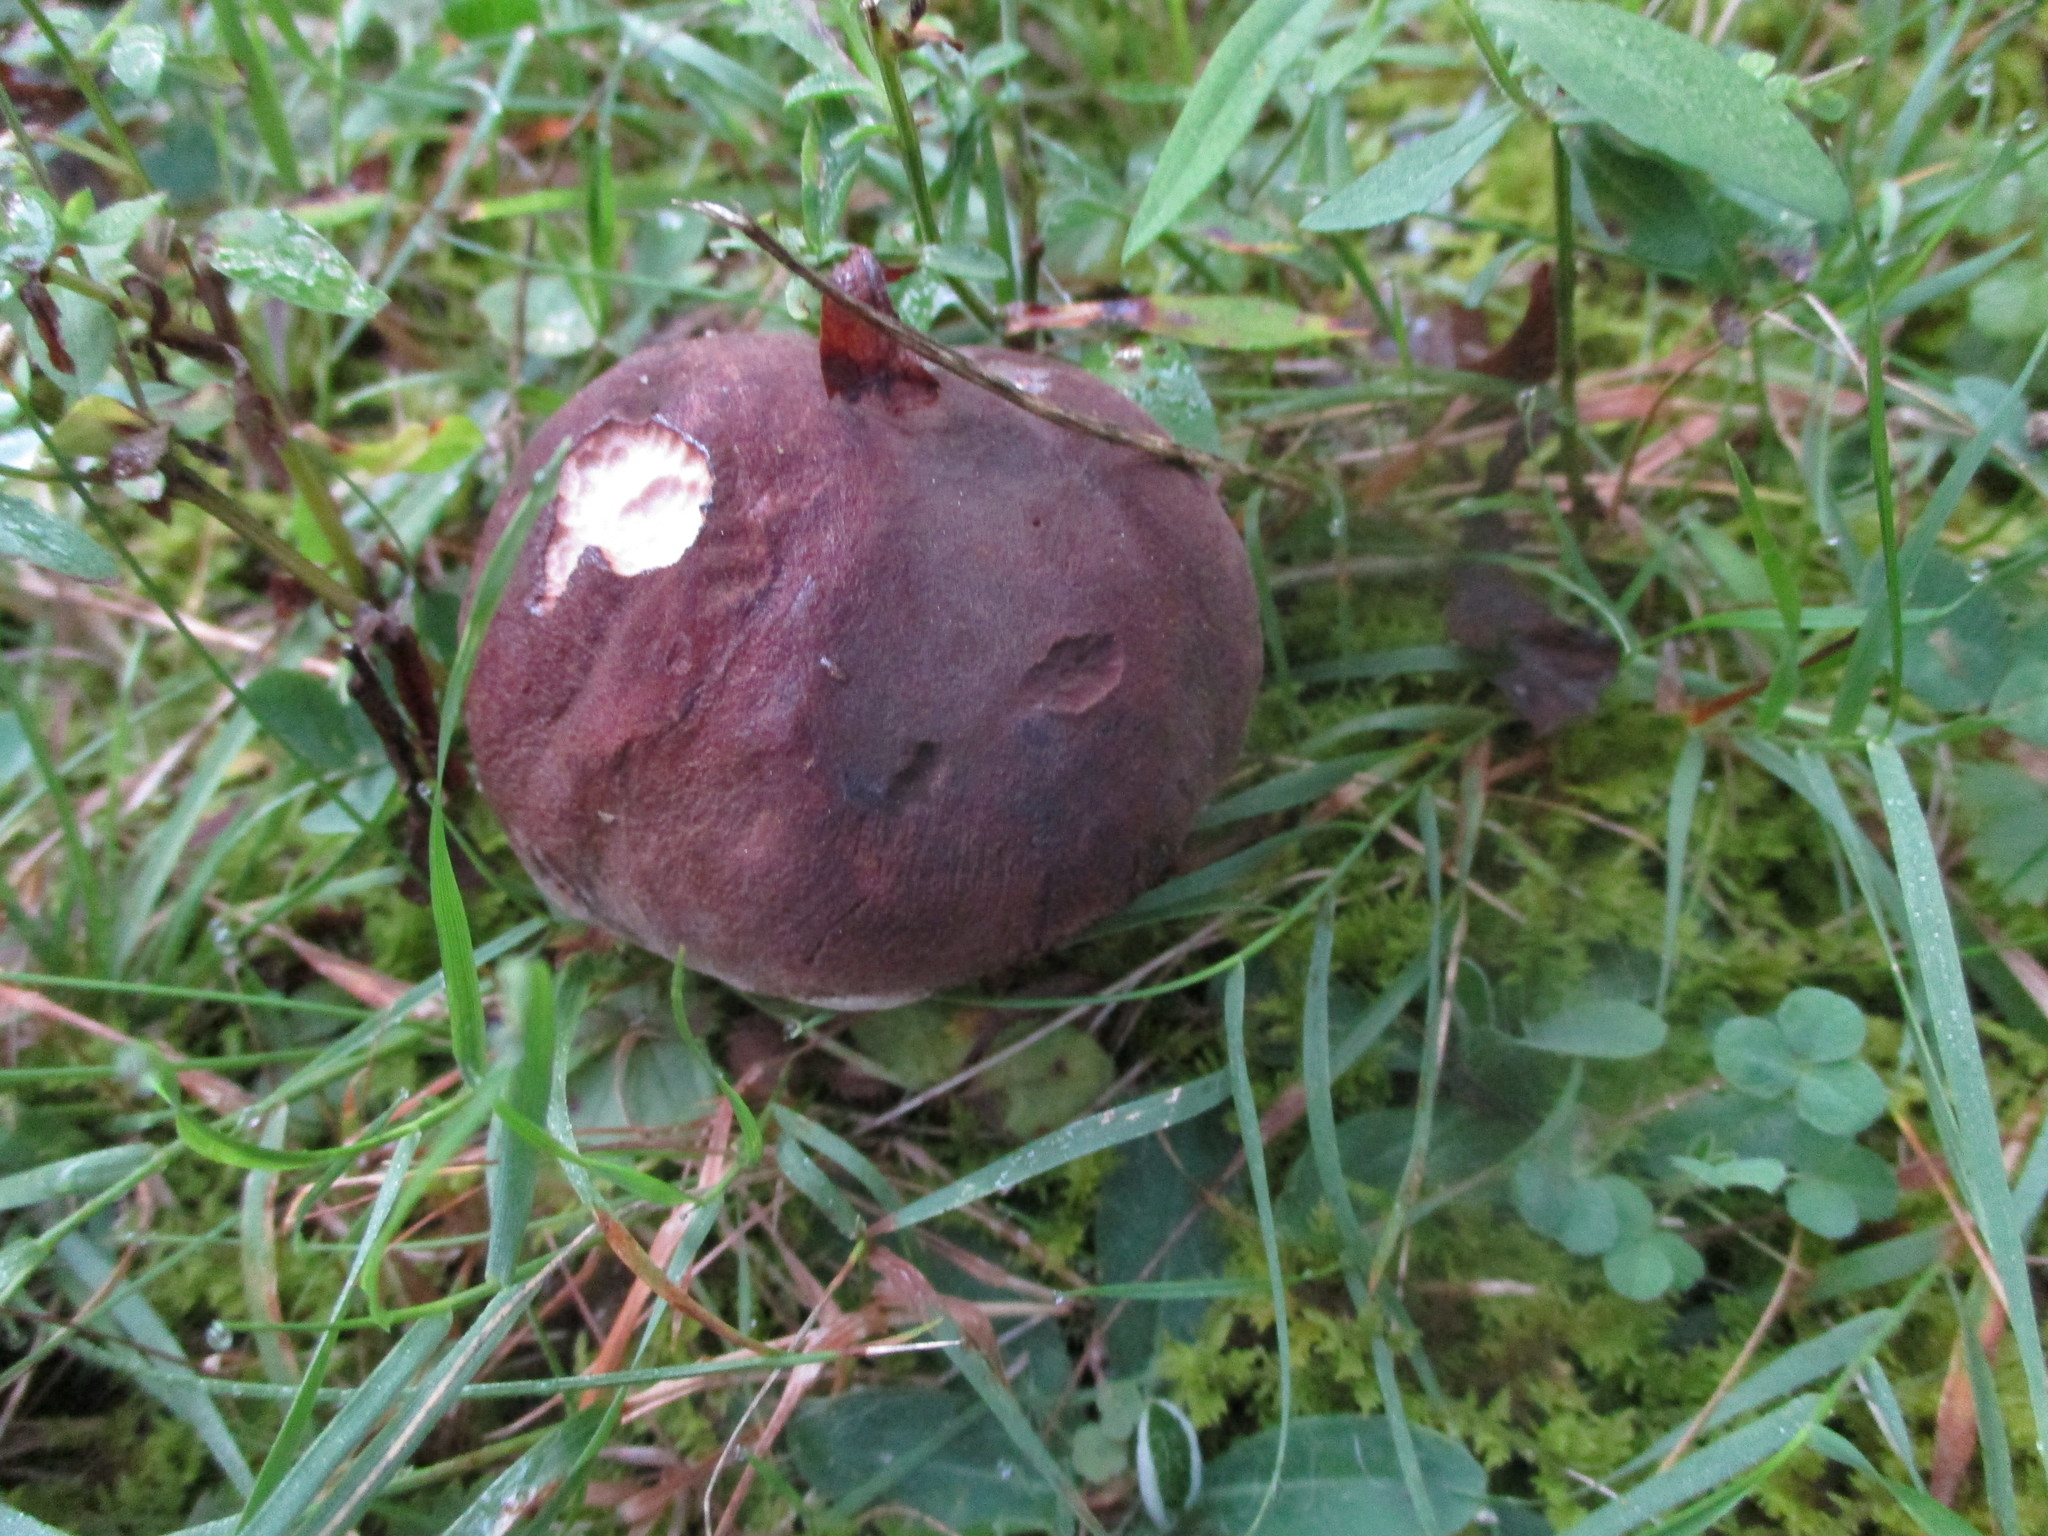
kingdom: Fungi
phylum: Basidiomycota
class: Agaricomycetes
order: Boletales
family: Boletaceae
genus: Tylopilus
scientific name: Tylopilus variobrunneus
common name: Brown-net bolete
